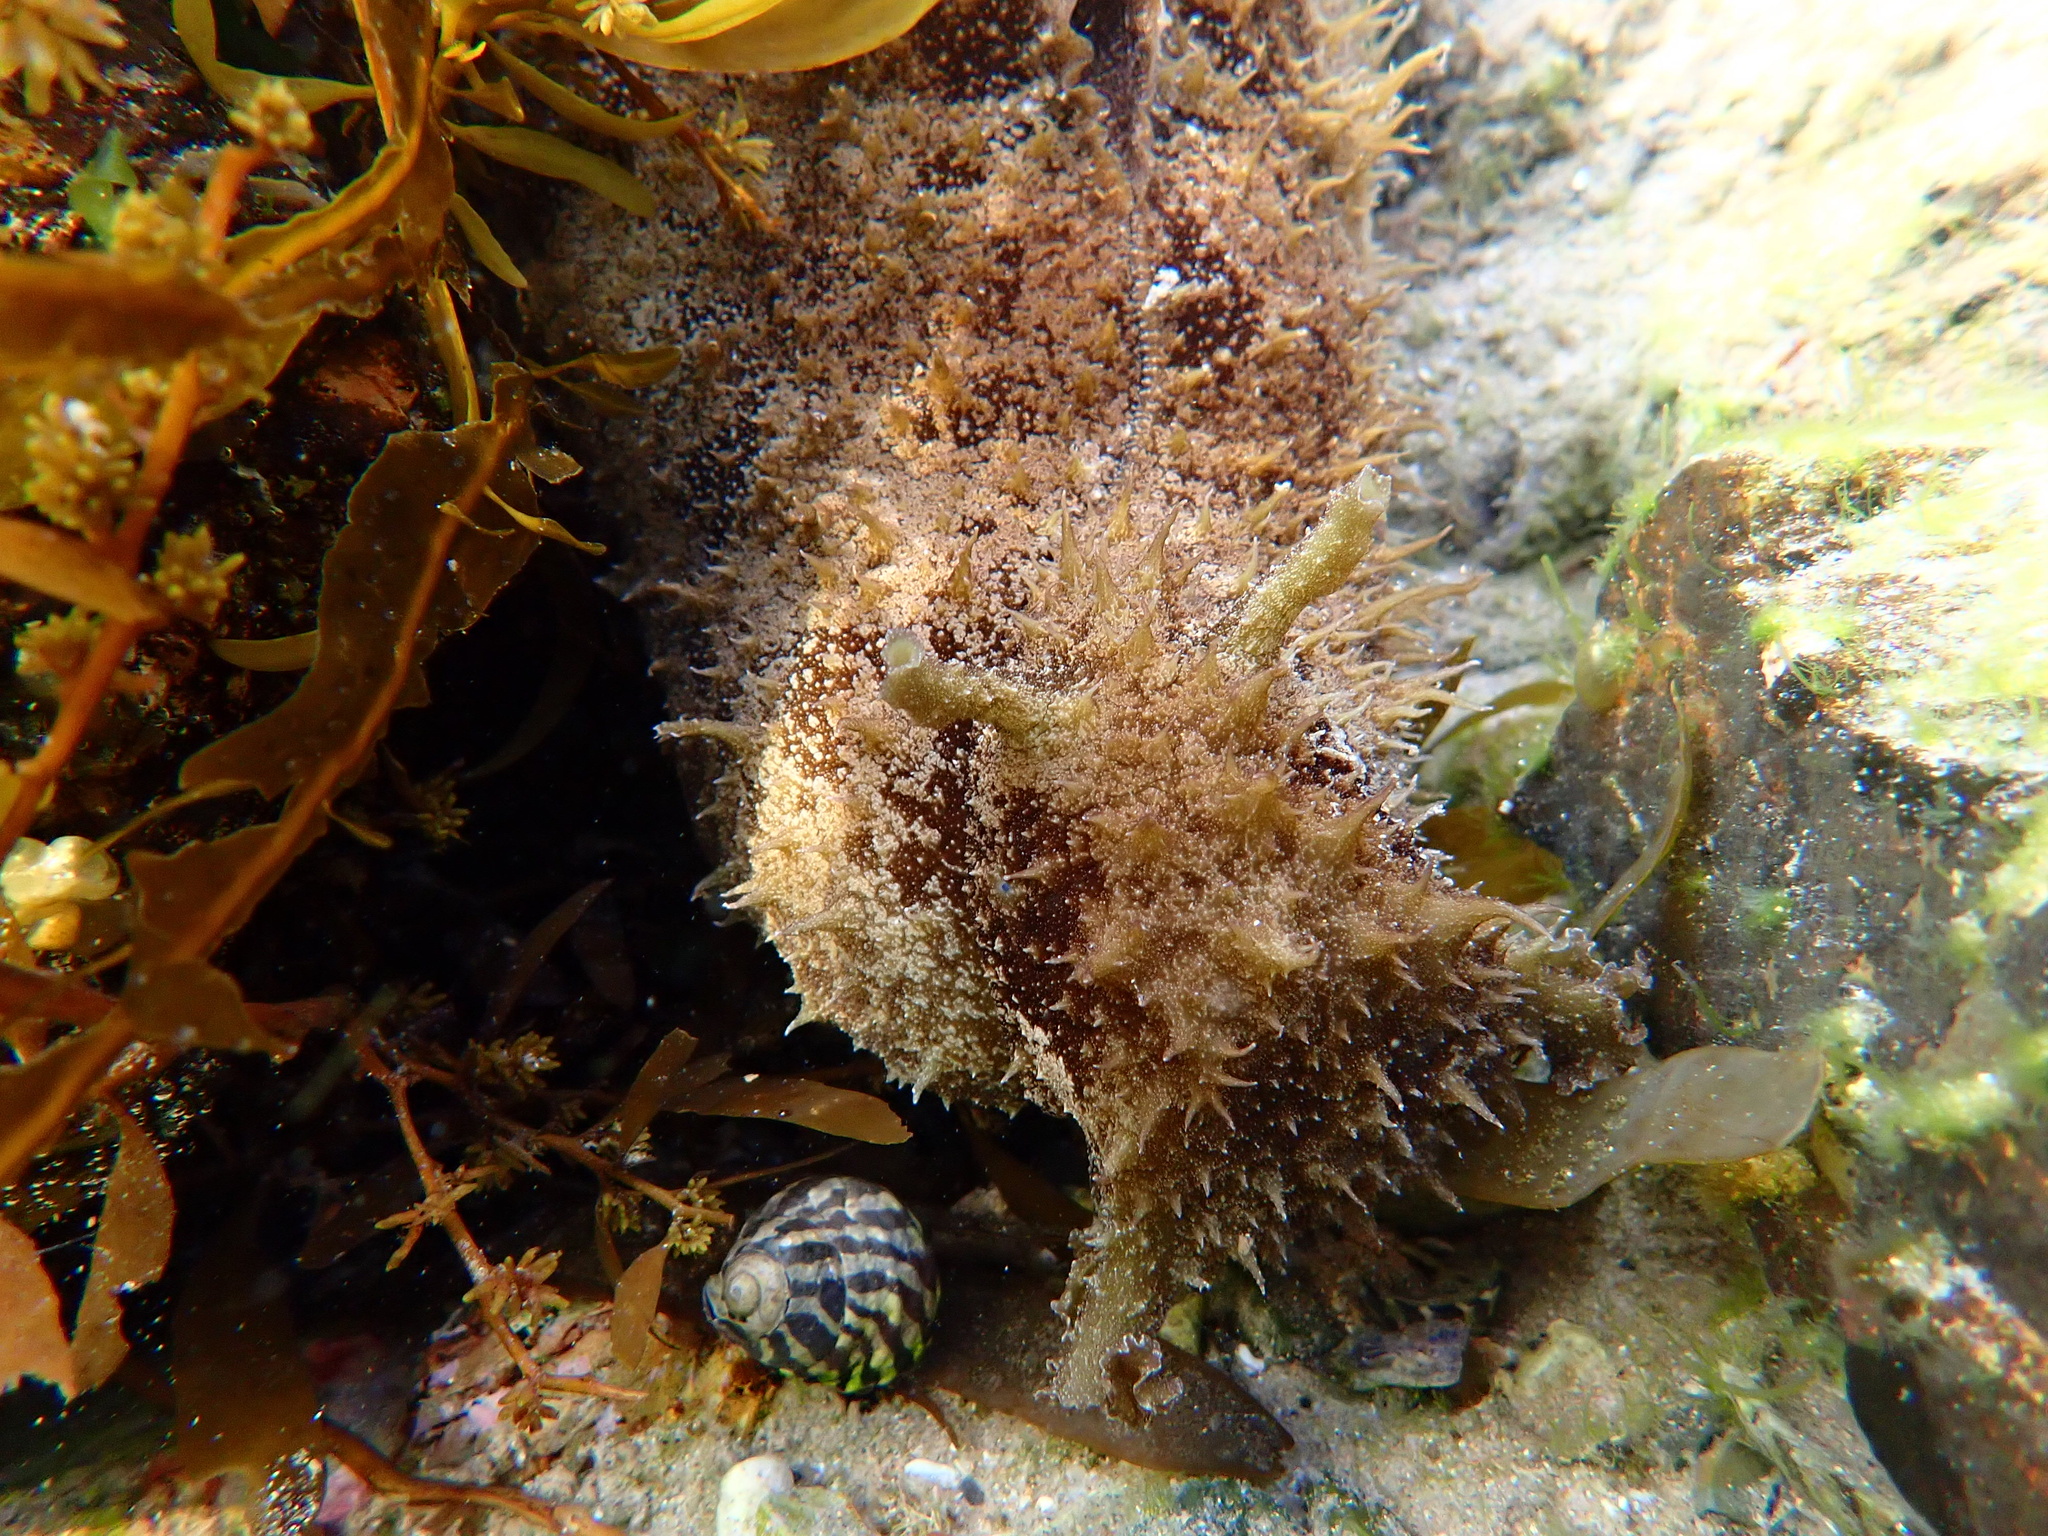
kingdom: Animalia
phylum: Mollusca
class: Gastropoda
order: Aplysiida
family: Aplysiidae
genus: Dolabella
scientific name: Dolabella auricularia
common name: Blunt-end seahare
